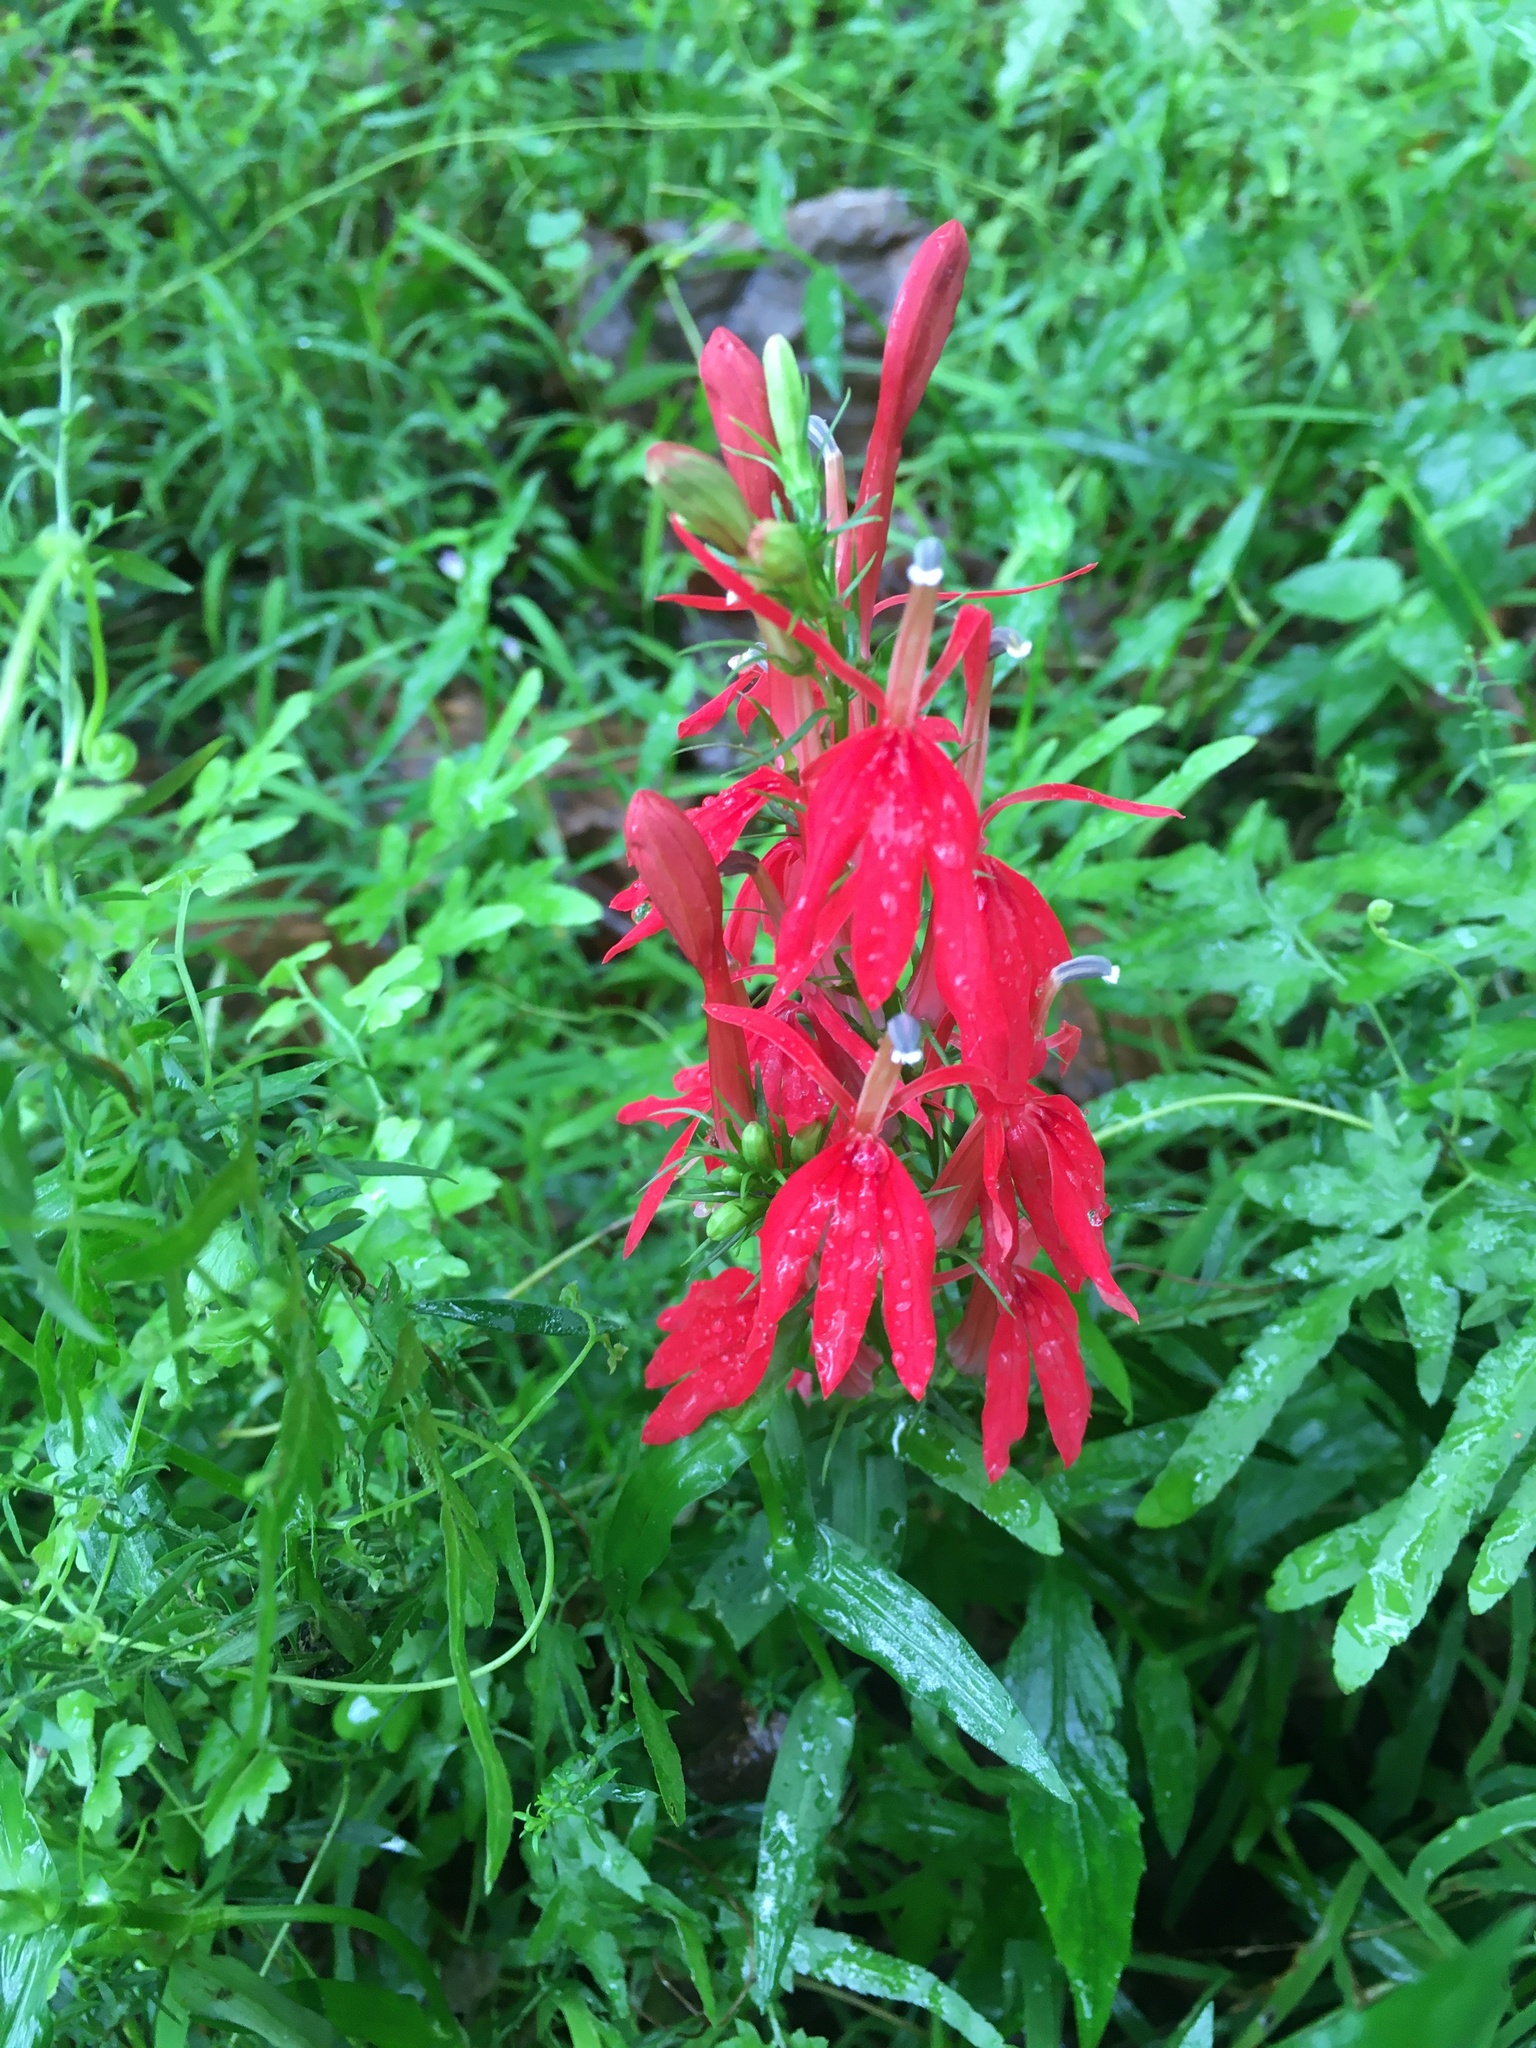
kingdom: Plantae
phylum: Tracheophyta
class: Magnoliopsida
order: Asterales
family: Campanulaceae
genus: Lobelia
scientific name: Lobelia cardinalis
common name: Cardinal flower
